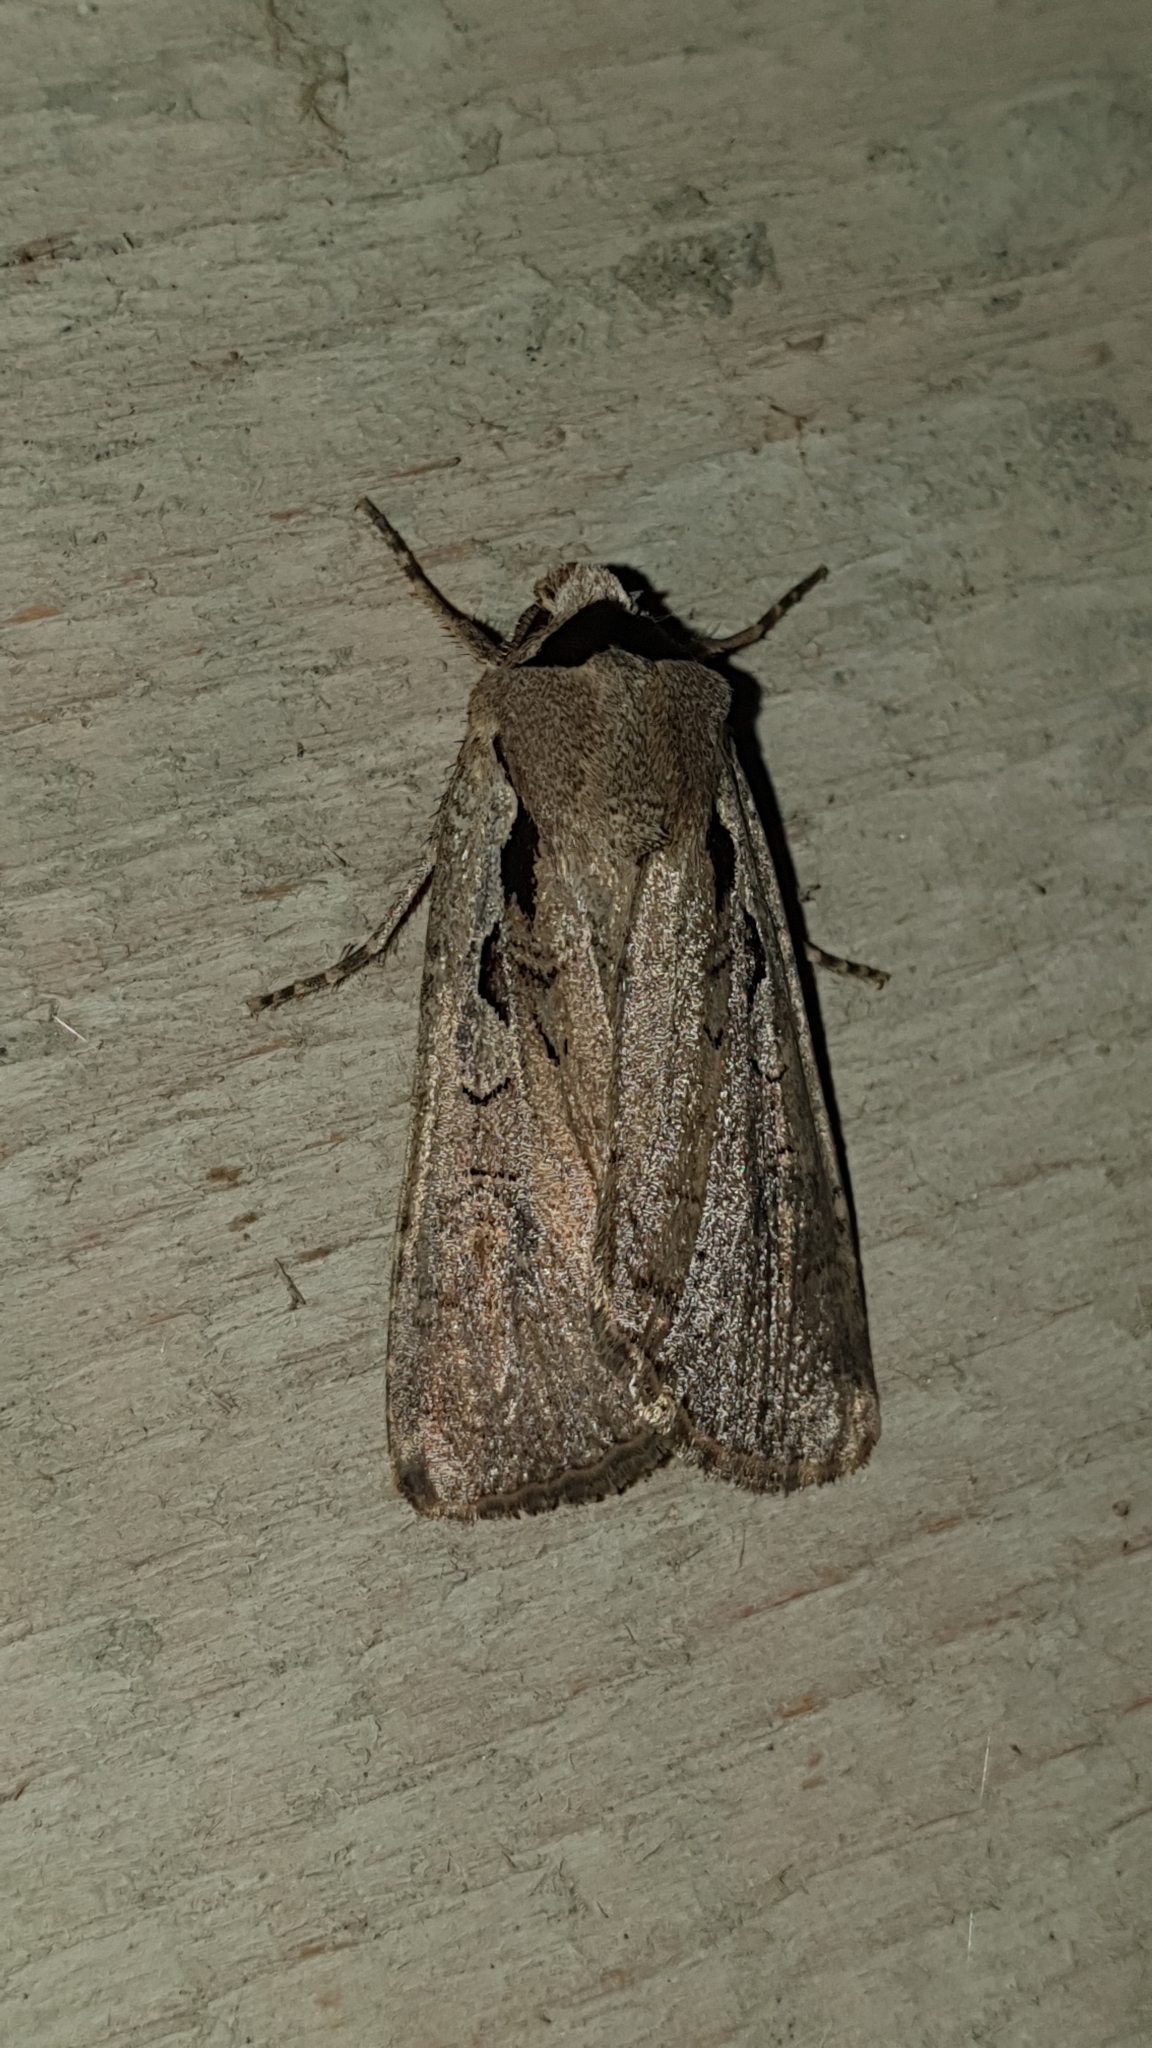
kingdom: Animalia
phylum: Arthropoda
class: Insecta
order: Lepidoptera
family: Noctuidae
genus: Basistriga
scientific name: Basistriga flammatra
